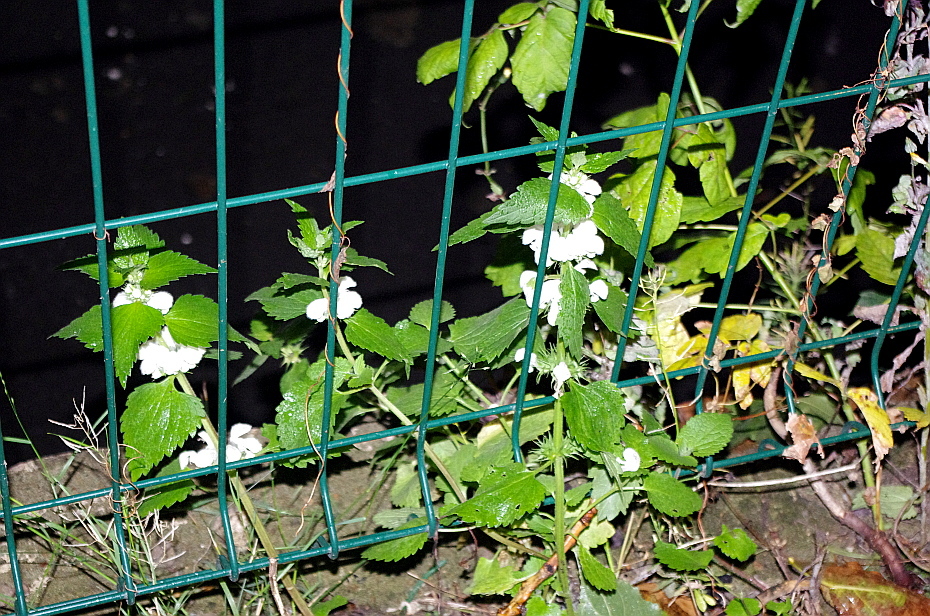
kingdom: Plantae
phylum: Tracheophyta
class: Magnoliopsida
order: Lamiales
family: Lamiaceae
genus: Lamium
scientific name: Lamium album
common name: White dead-nettle
